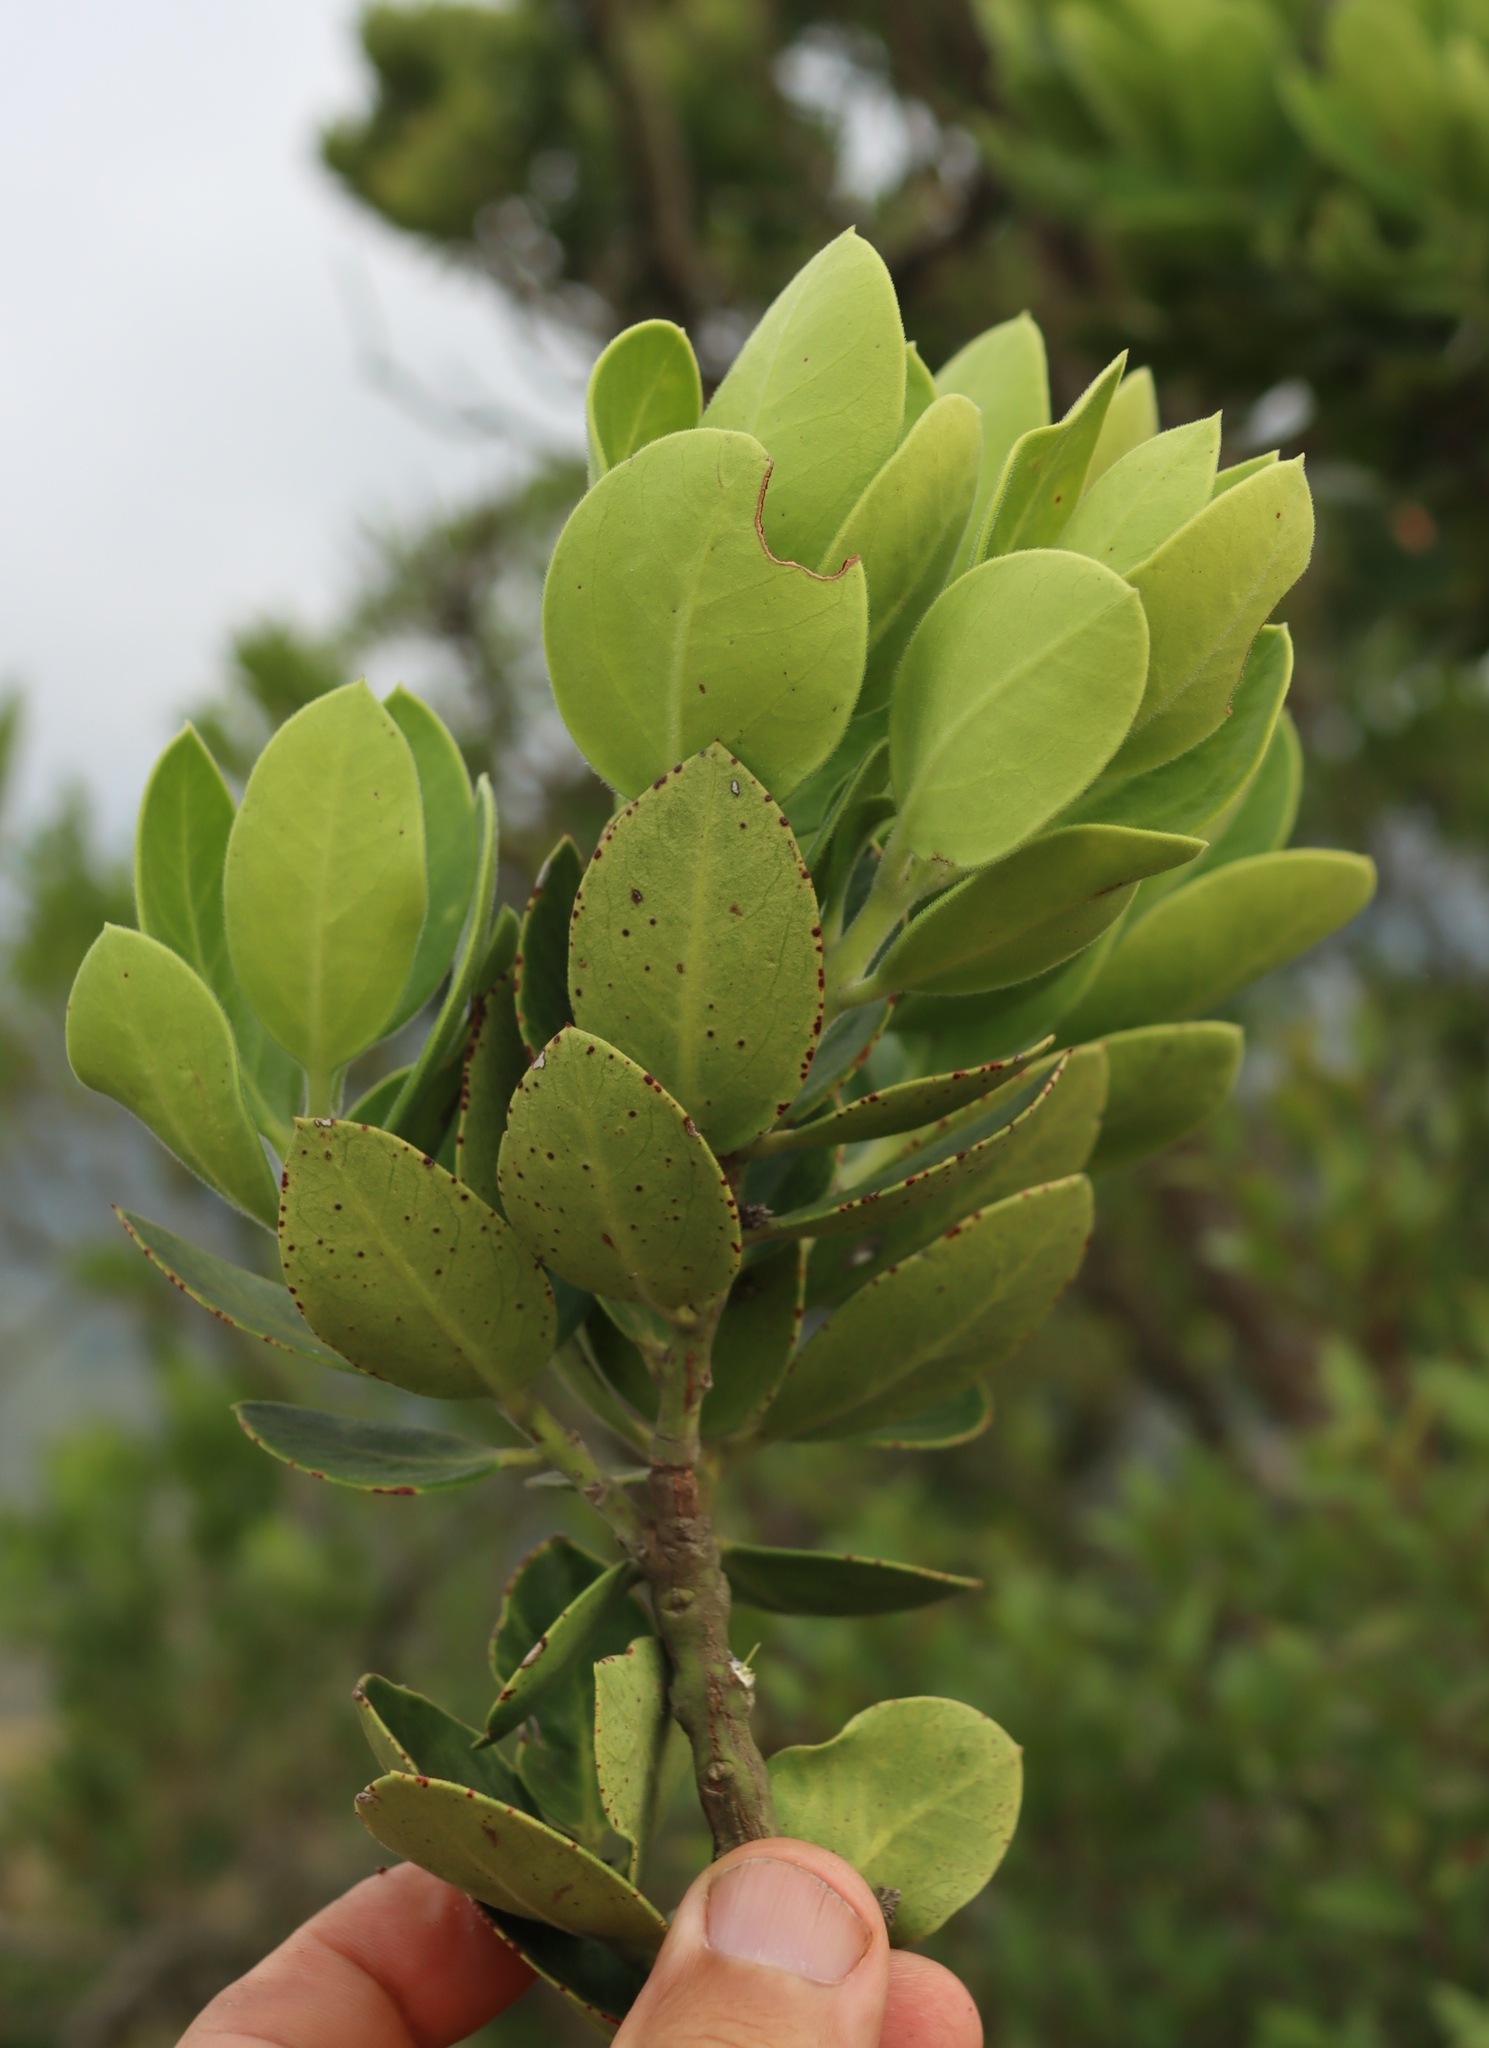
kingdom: Plantae
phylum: Tracheophyta
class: Magnoliopsida
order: Gentianales
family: Apocynaceae
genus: Acokanthera
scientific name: Acokanthera rotundata
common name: Round-leaved poison-bush
